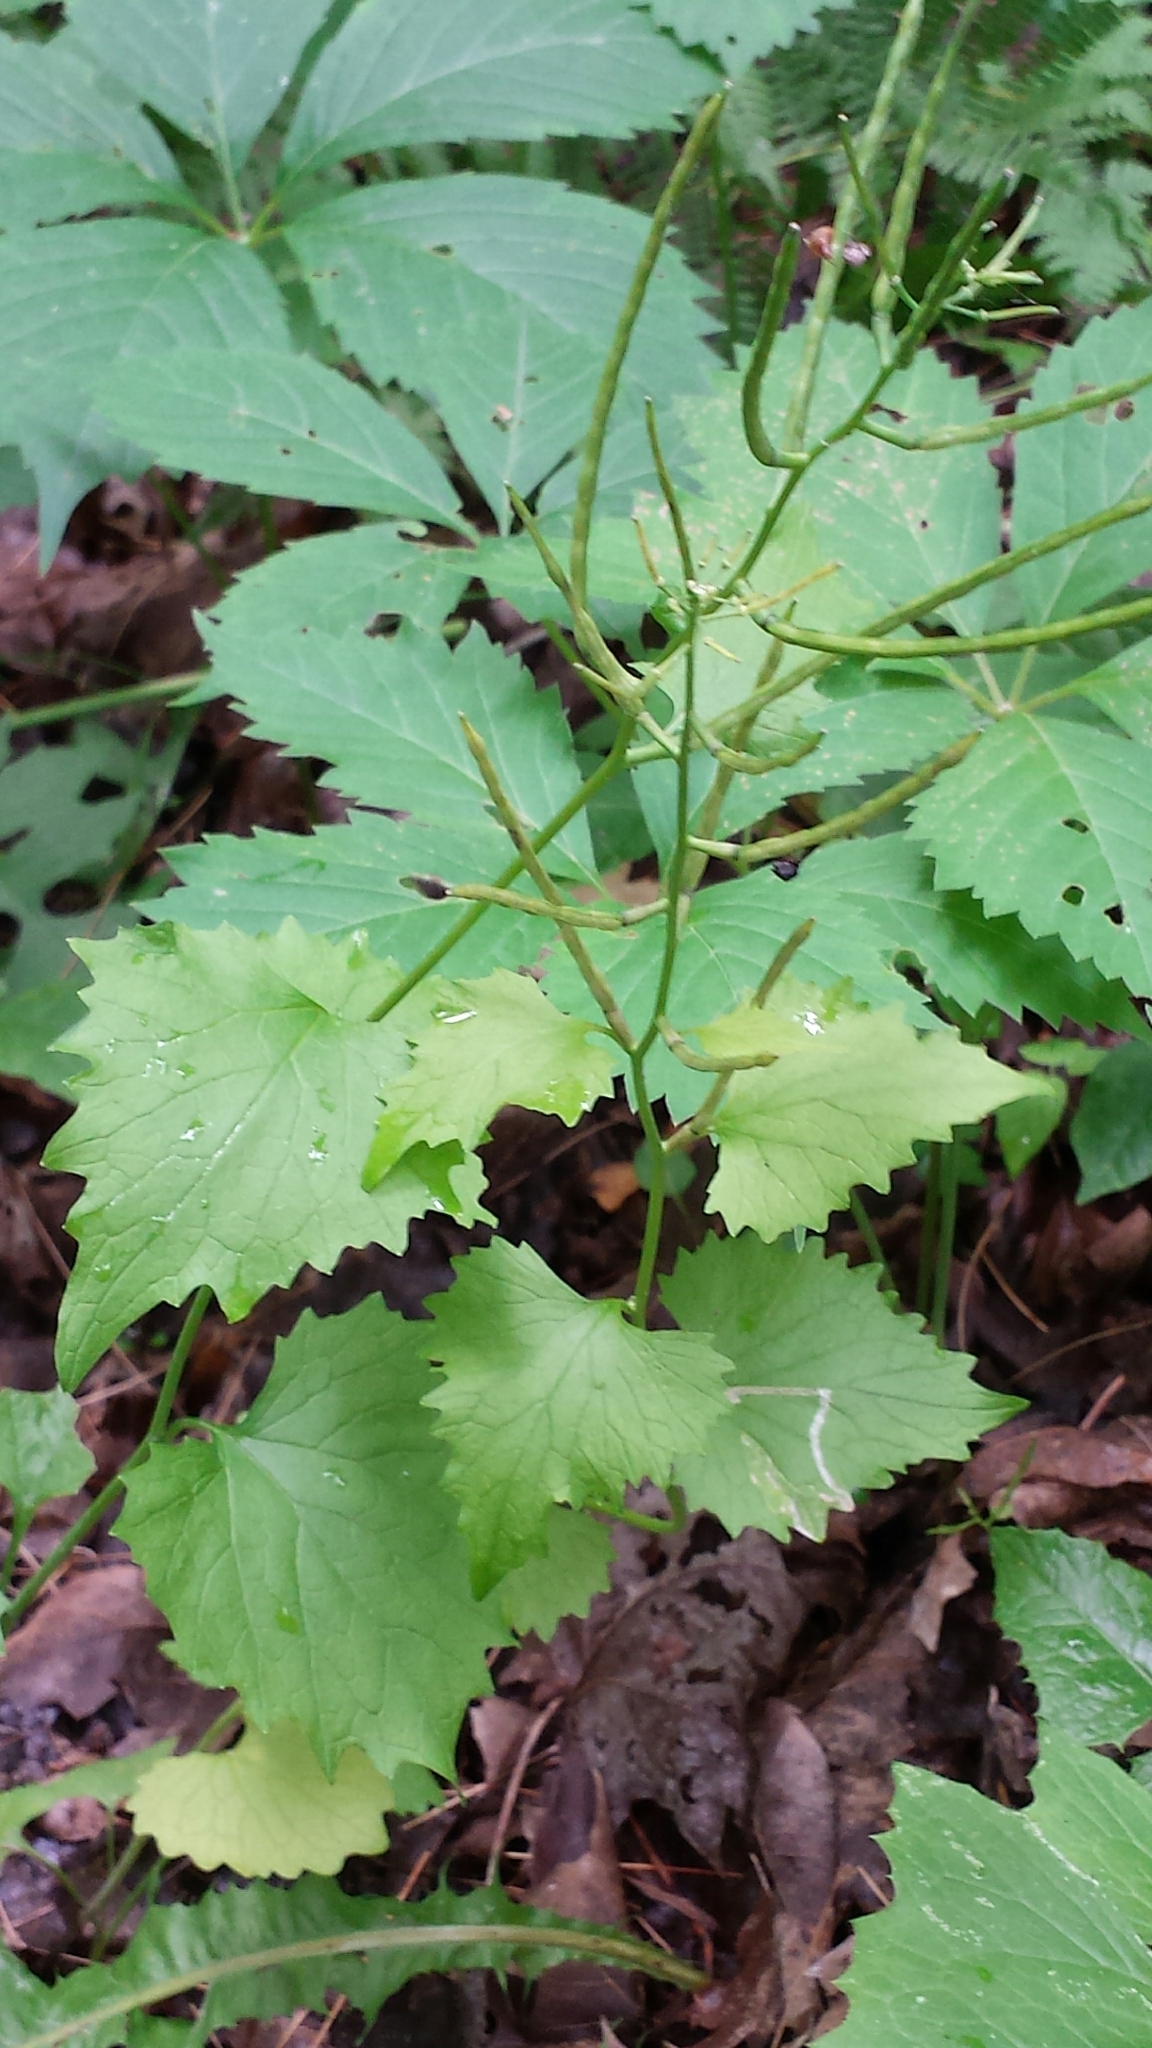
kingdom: Plantae
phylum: Tracheophyta
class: Magnoliopsida
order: Brassicales
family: Brassicaceae
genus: Alliaria
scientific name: Alliaria petiolata
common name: Garlic mustard
